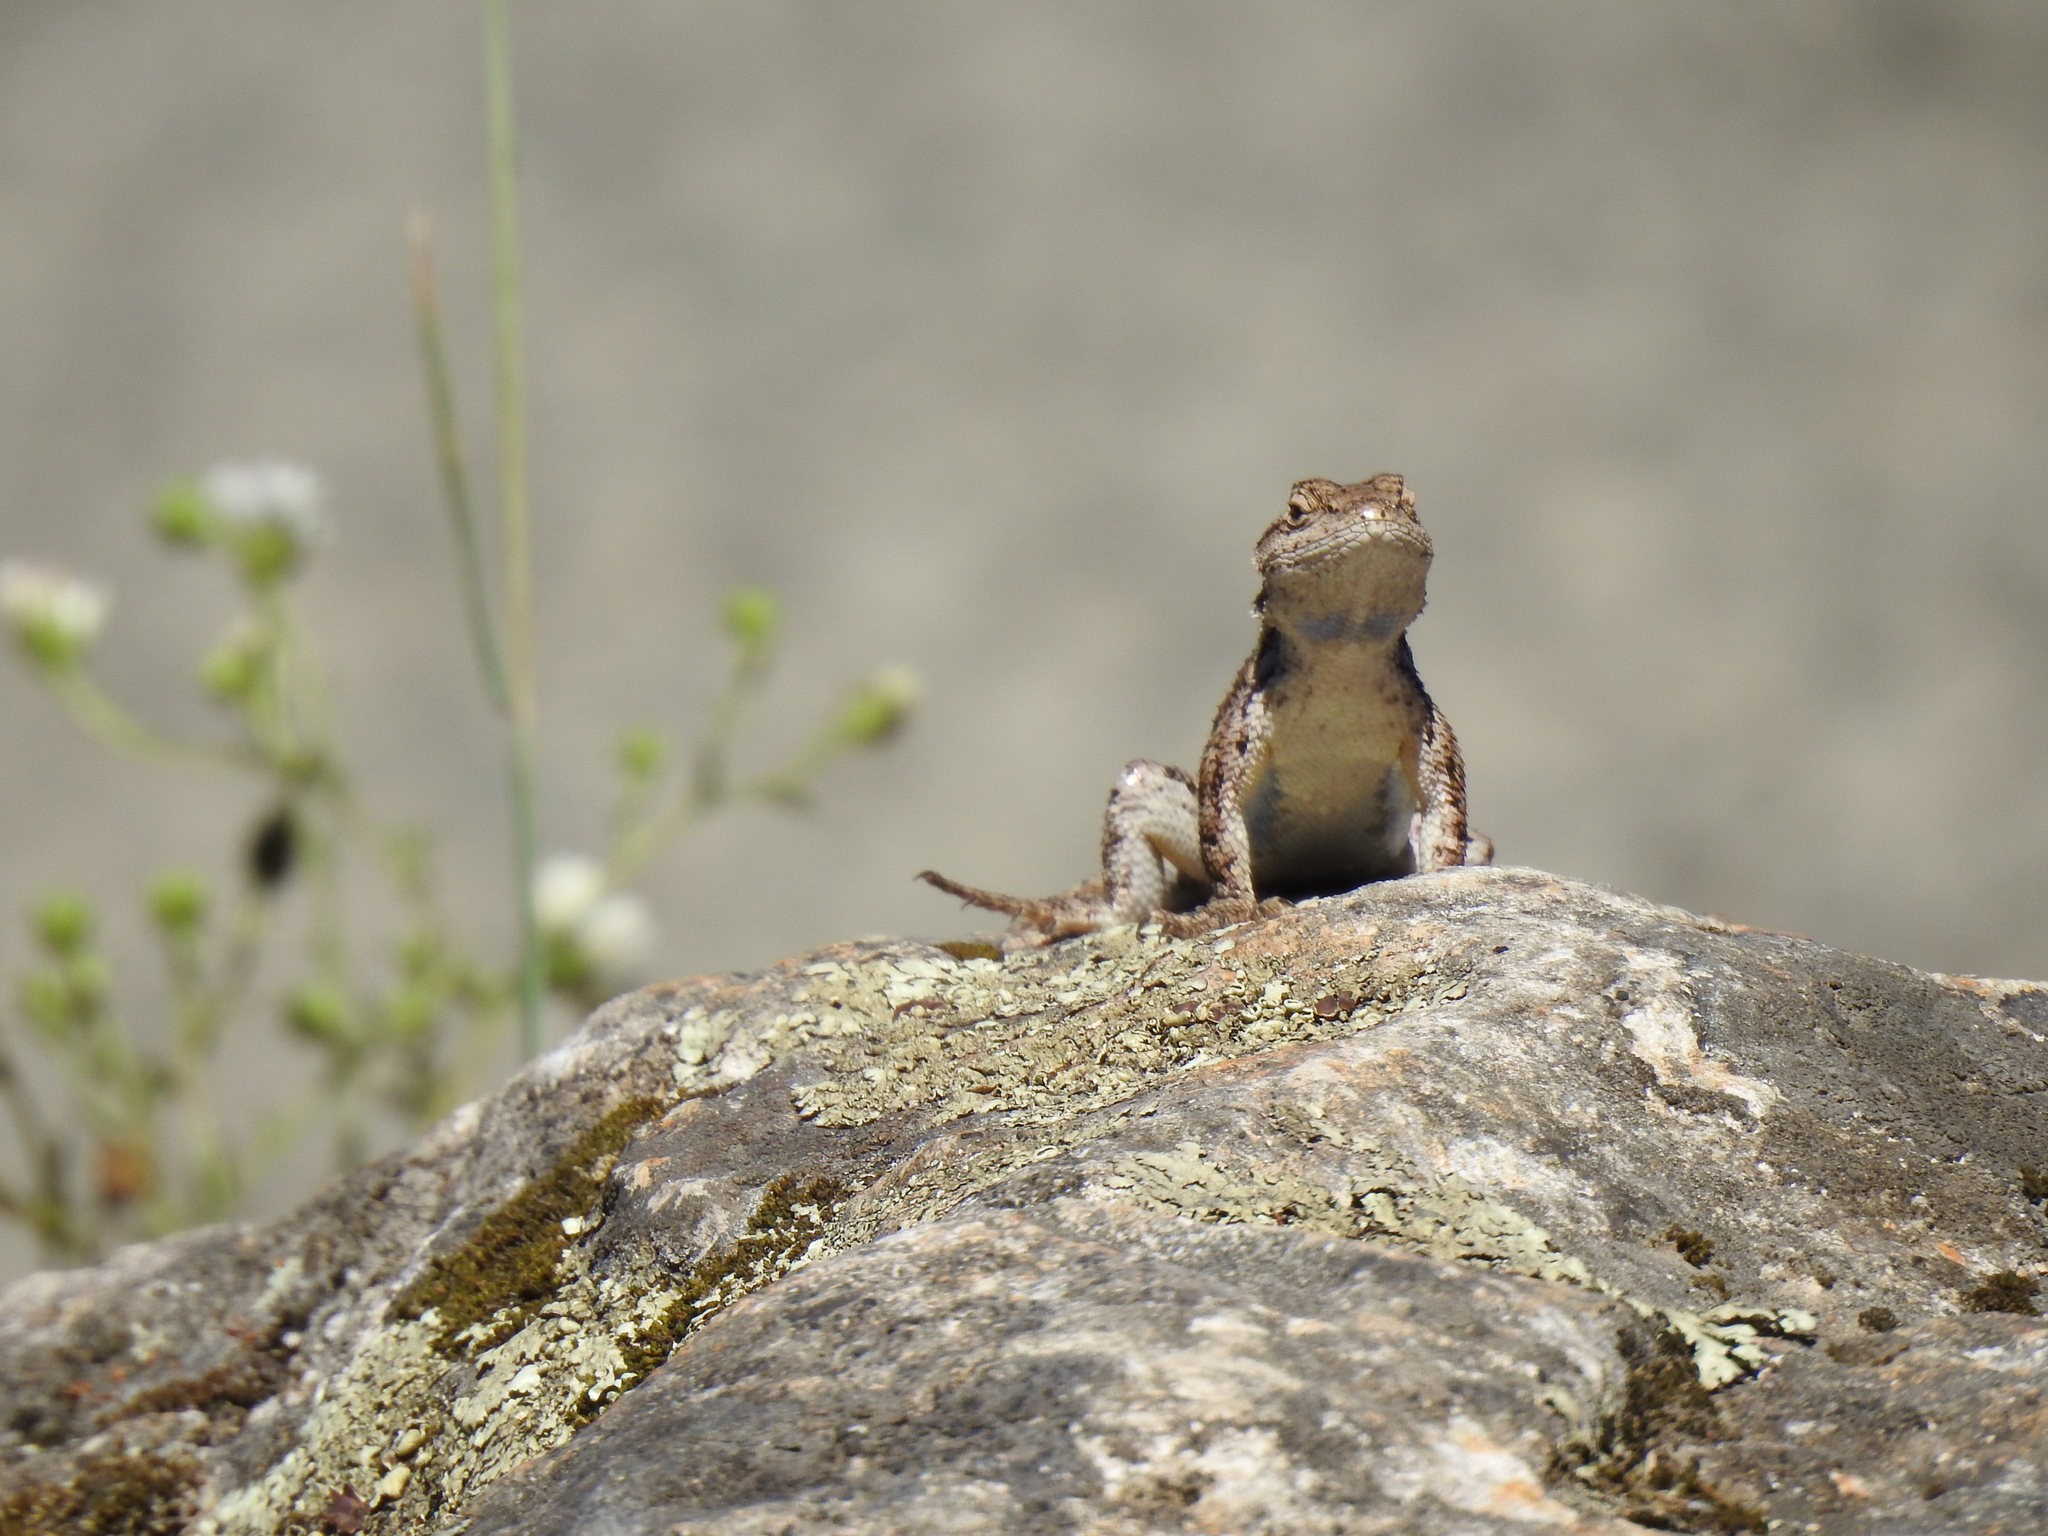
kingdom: Animalia
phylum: Chordata
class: Squamata
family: Phrynosomatidae
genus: Sceloporus
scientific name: Sceloporus occidentalis
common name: Western fence lizard
